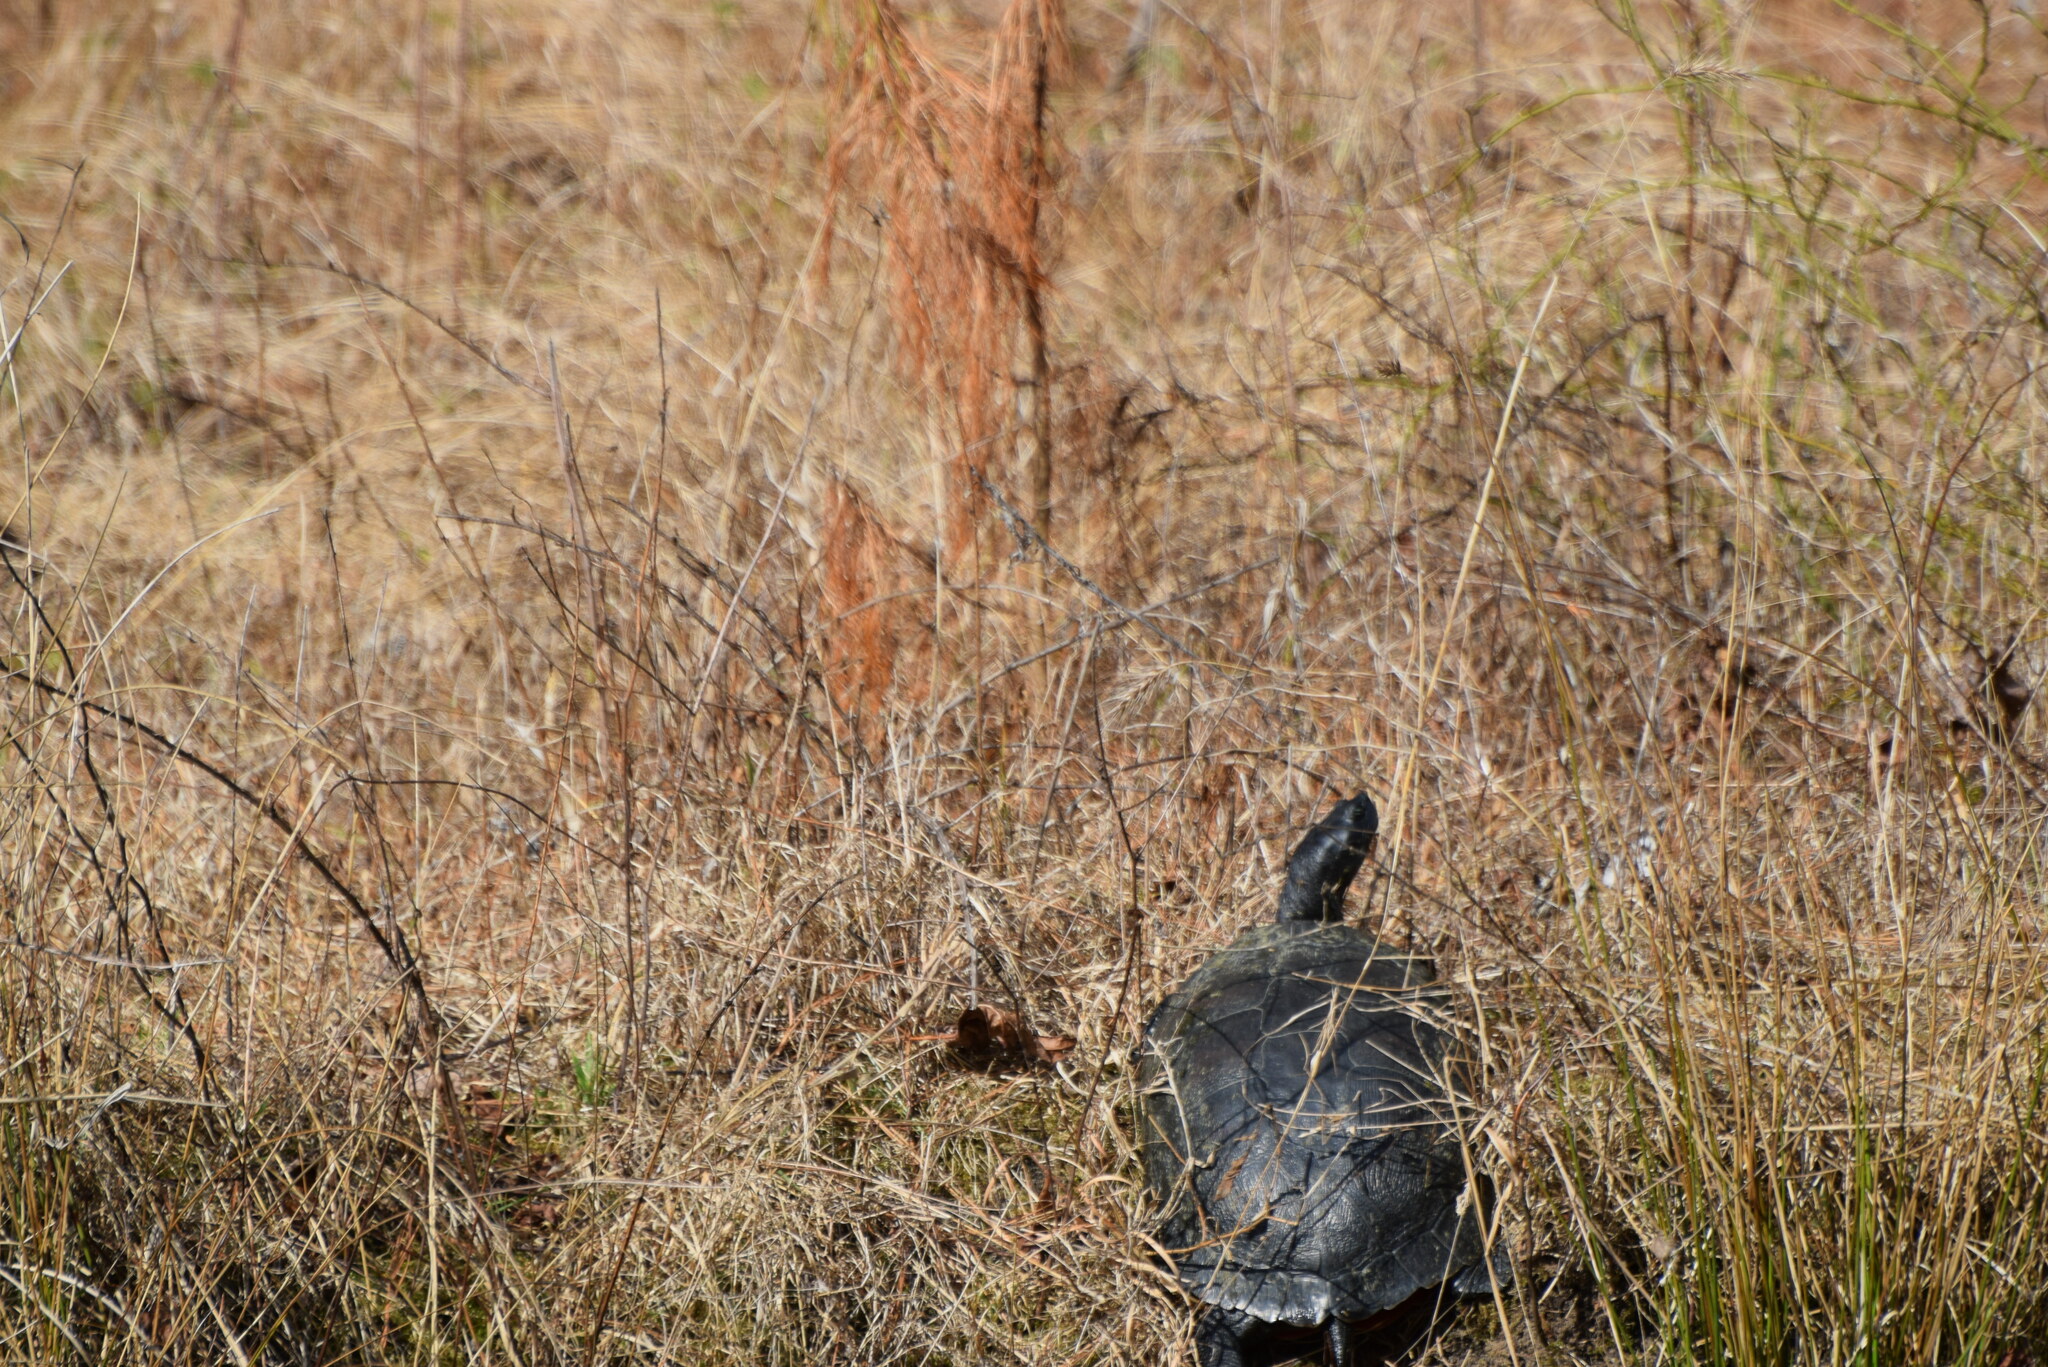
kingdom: Animalia
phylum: Chordata
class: Testudines
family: Emydidae
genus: Pseudemys
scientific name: Pseudemys rubriventris
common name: American red-bellied turtle
